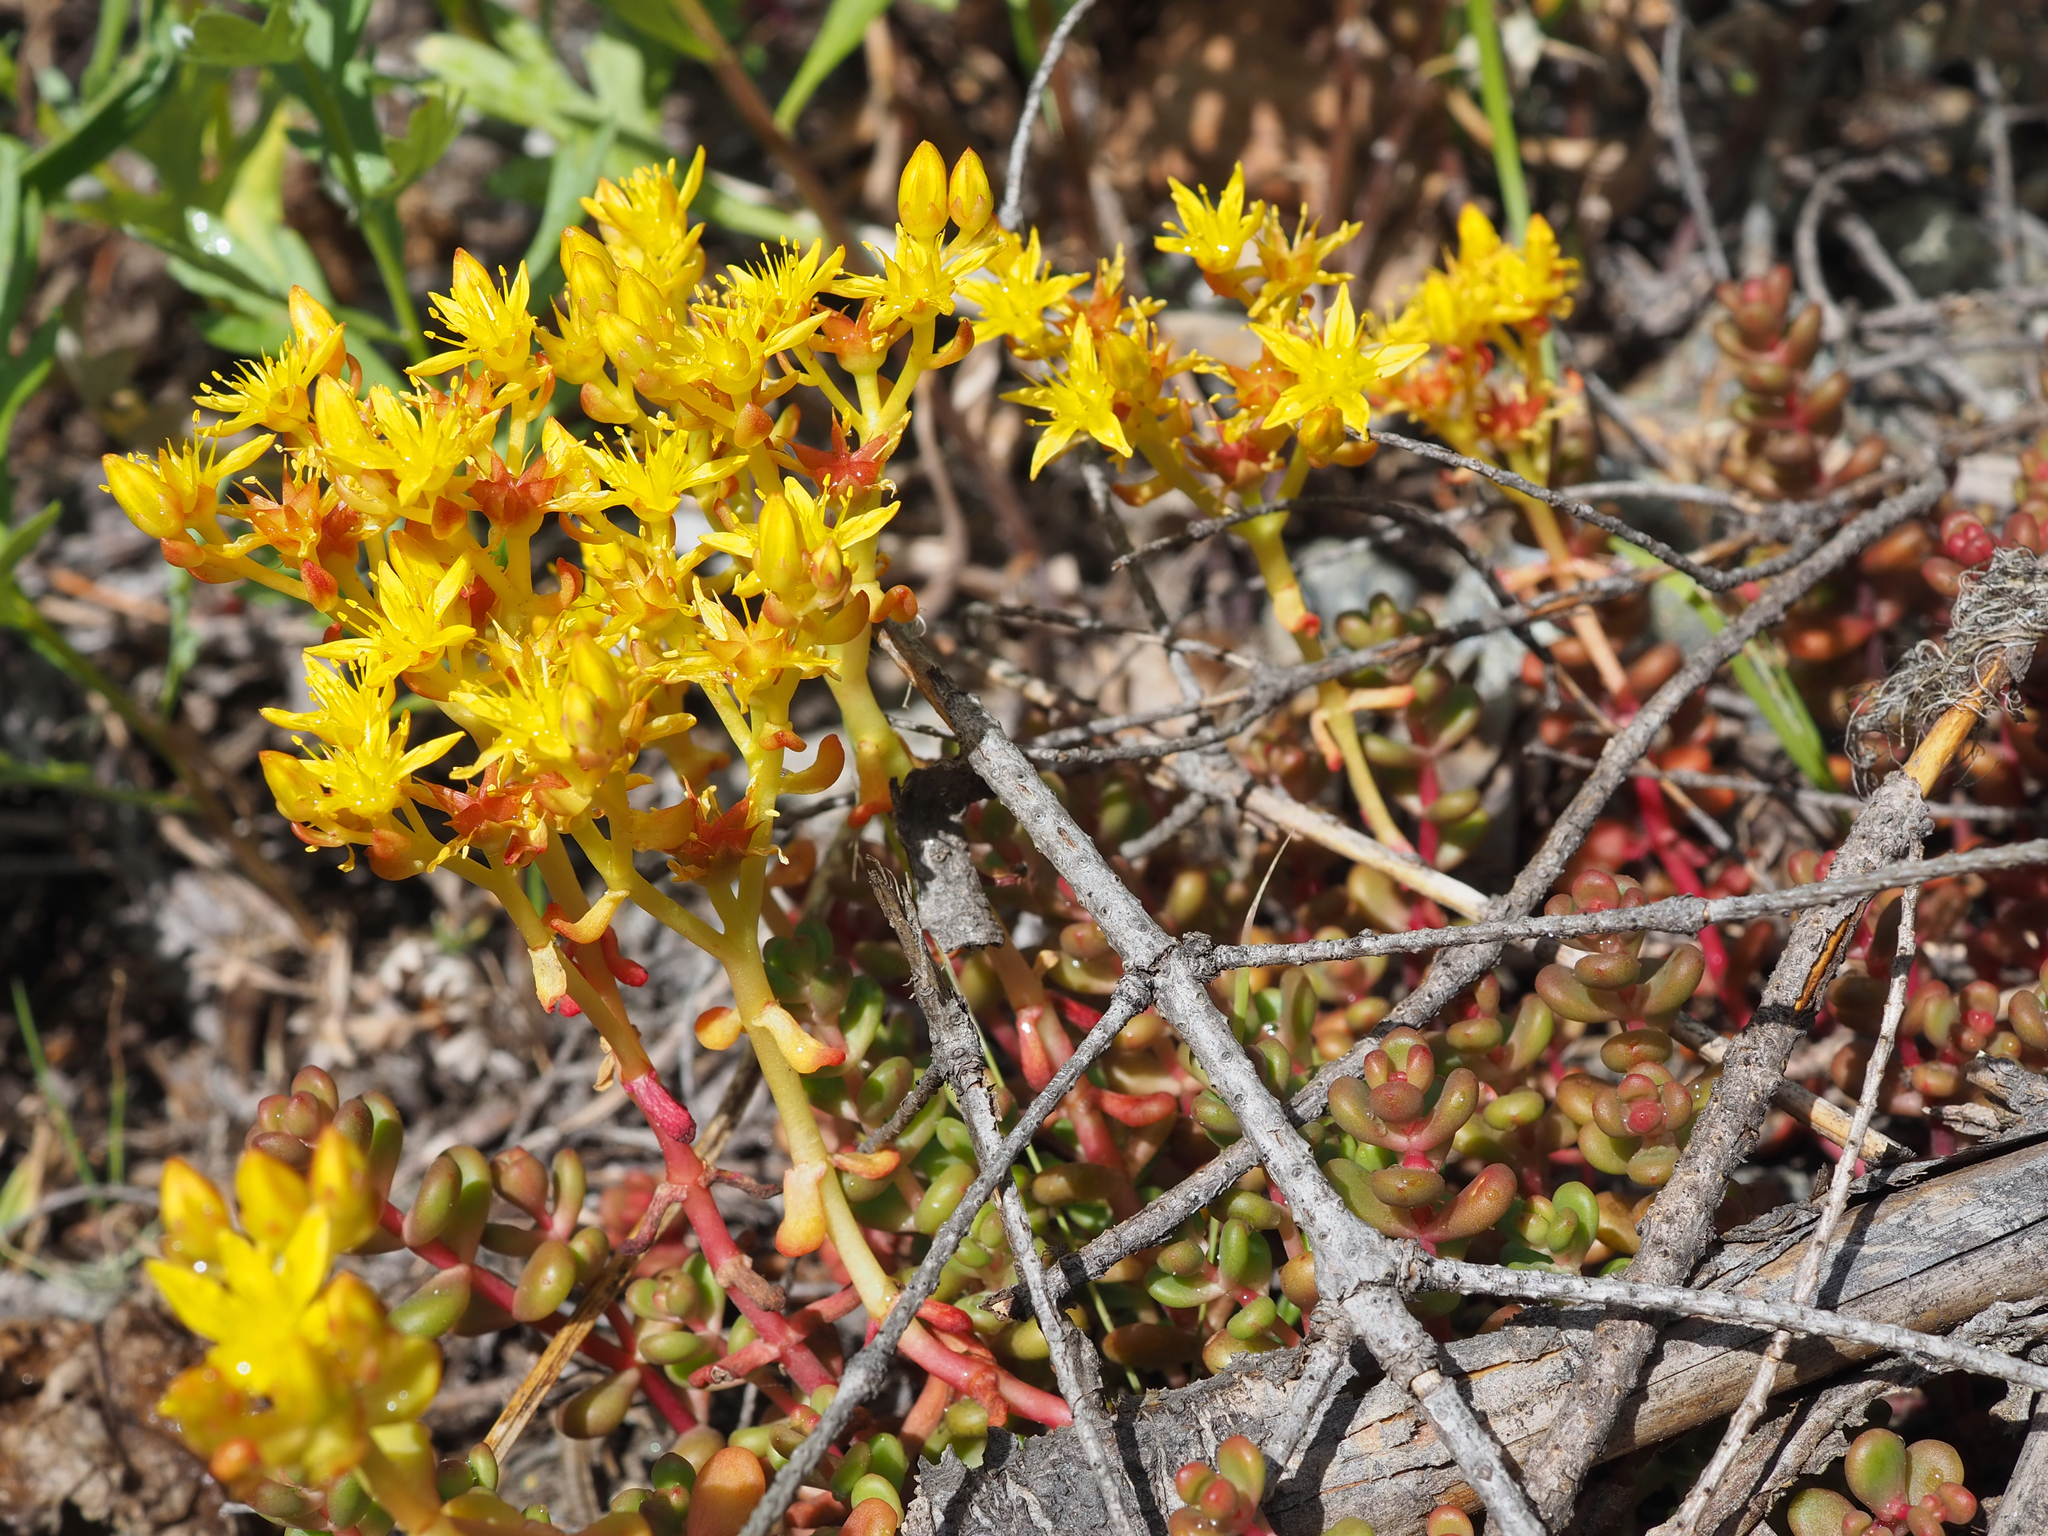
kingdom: Plantae
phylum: Tracheophyta
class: Magnoliopsida
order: Saxifragales
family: Crassulaceae
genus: Sedum
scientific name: Sedum divergens
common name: Cascade stonecrop
